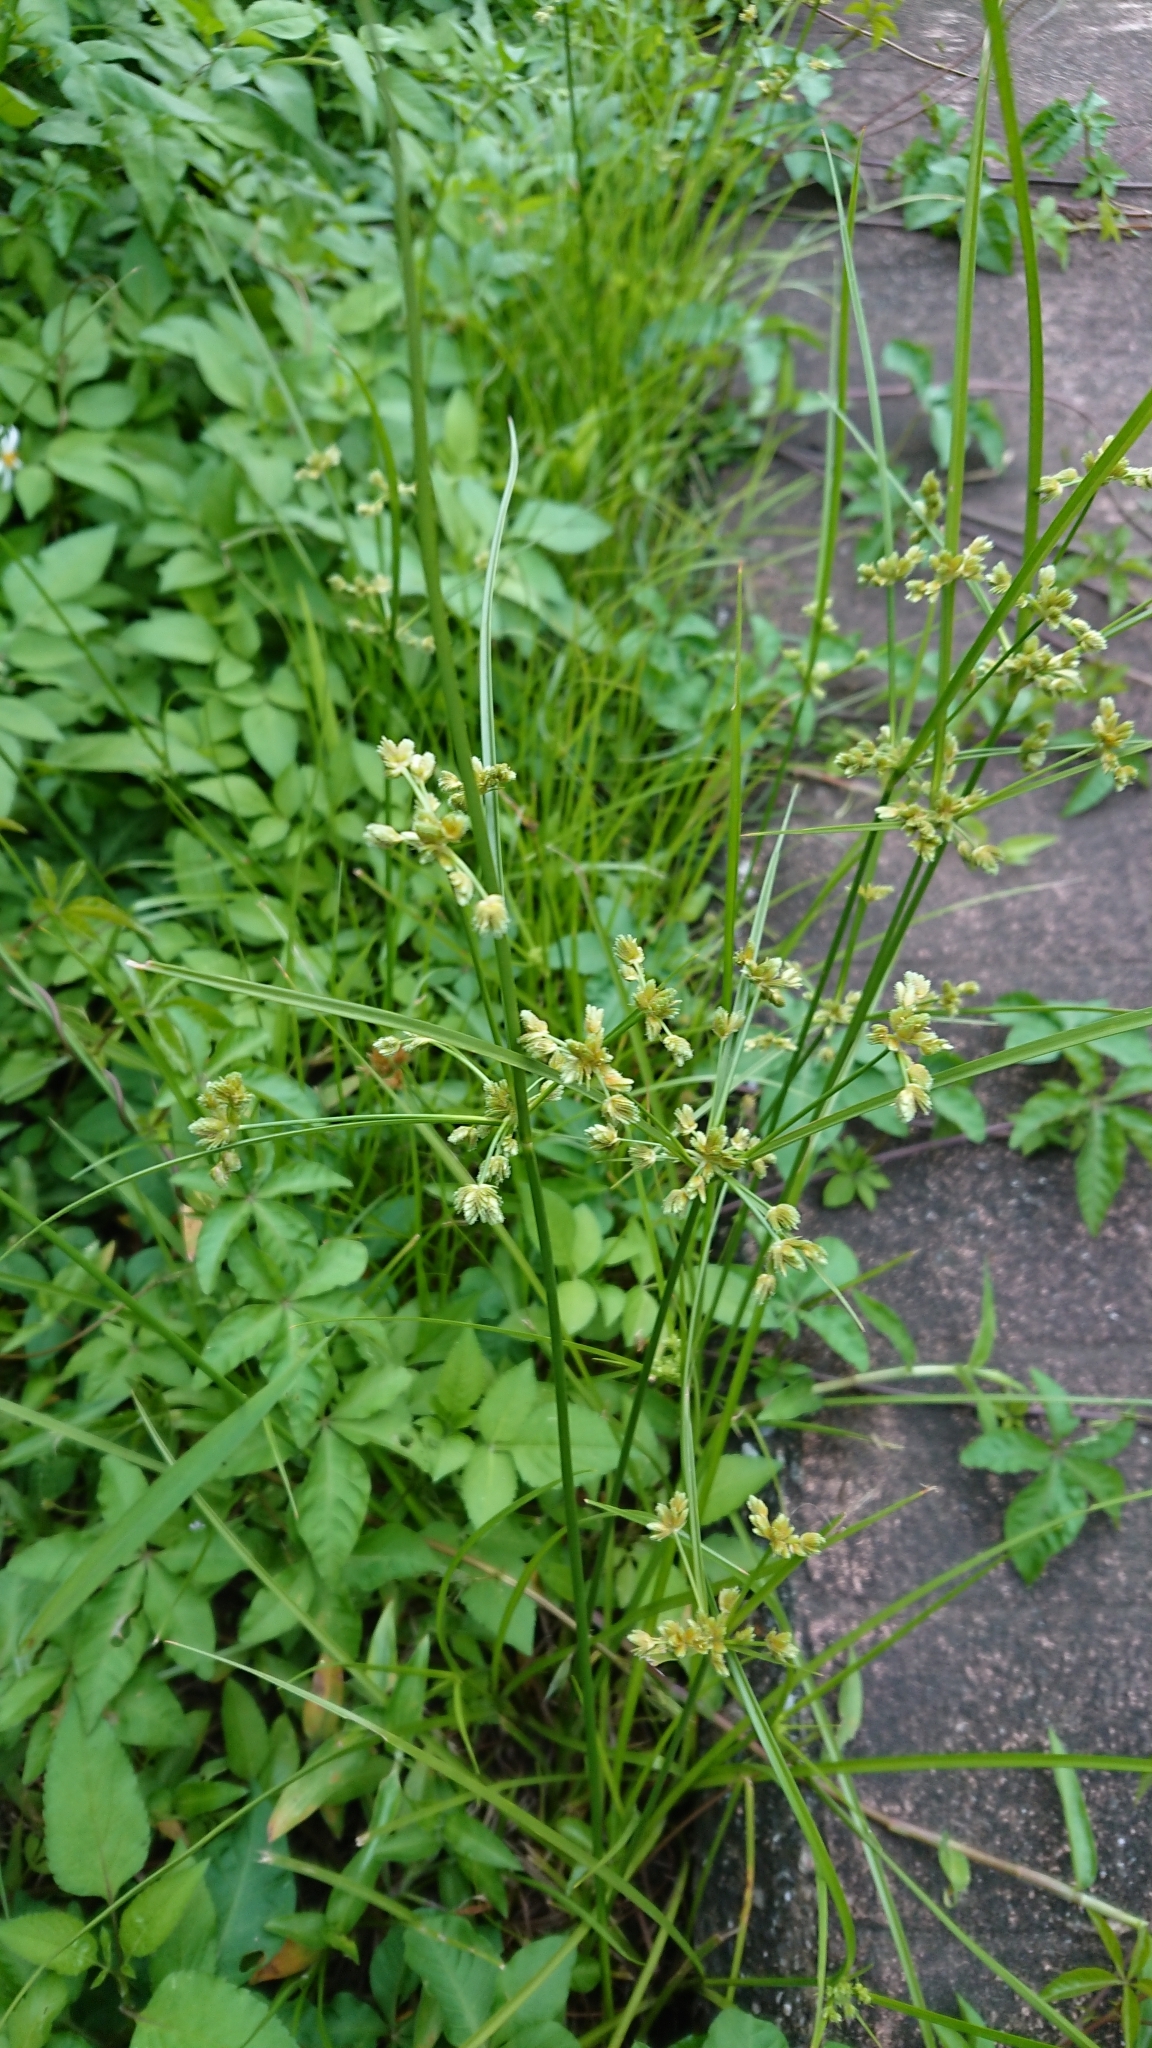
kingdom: Plantae
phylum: Tracheophyta
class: Liliopsida
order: Poales
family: Cyperaceae
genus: Cyperus
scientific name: Cyperus surinamensis
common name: Tropical flat sedge
